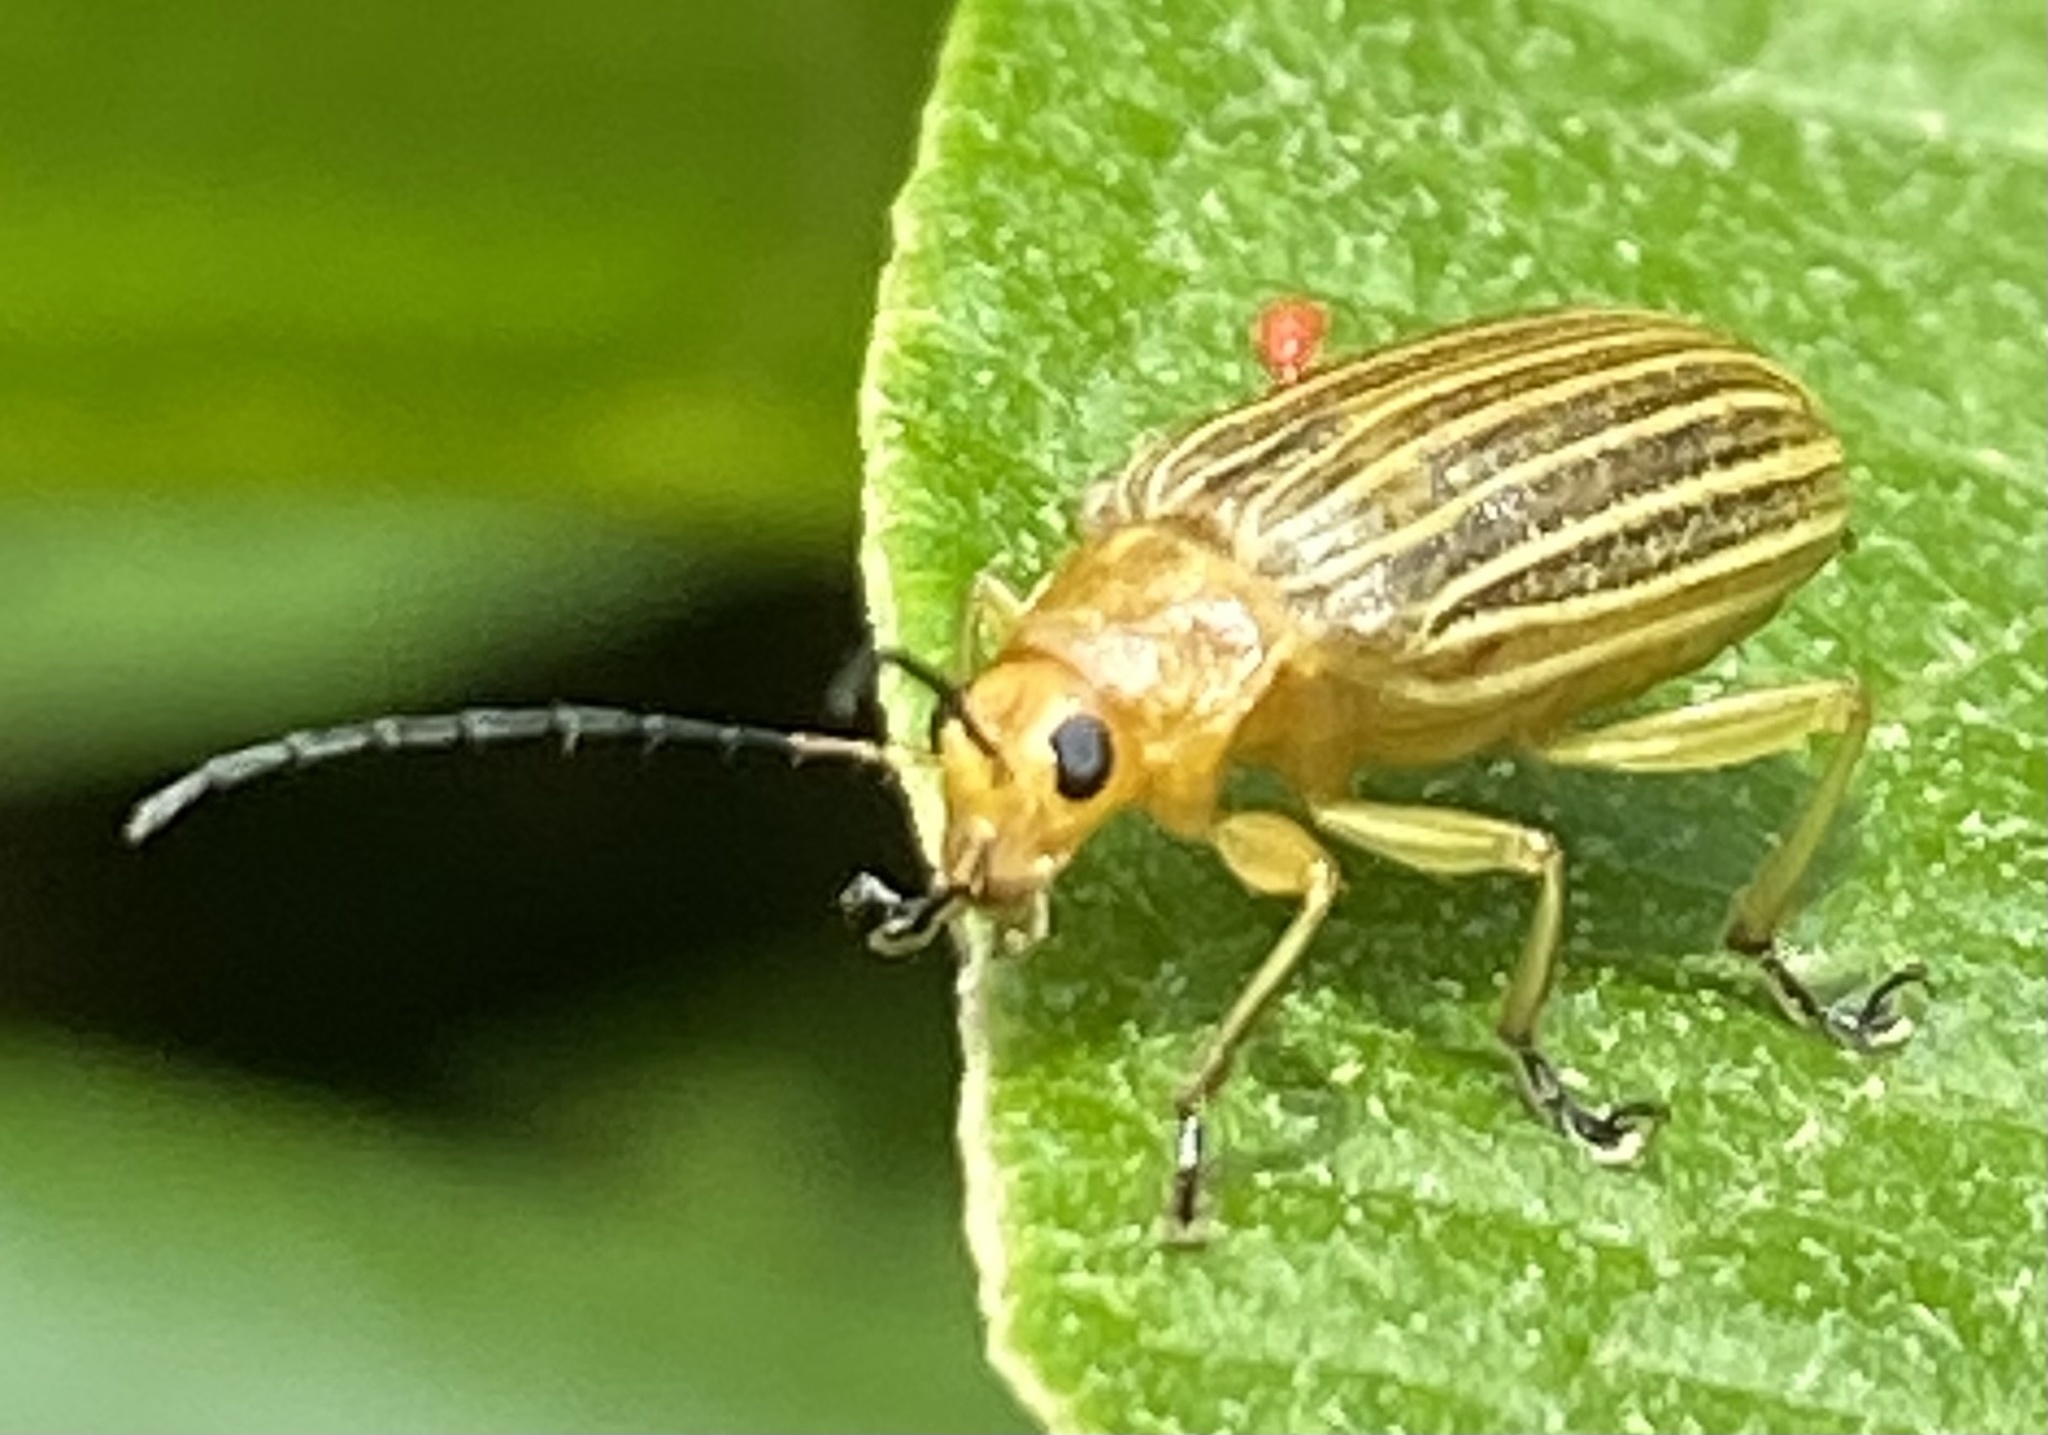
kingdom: Animalia
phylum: Arthropoda
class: Insecta
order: Coleoptera
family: Chrysomelidae
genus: Metaxyonycha
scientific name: Metaxyonycha
